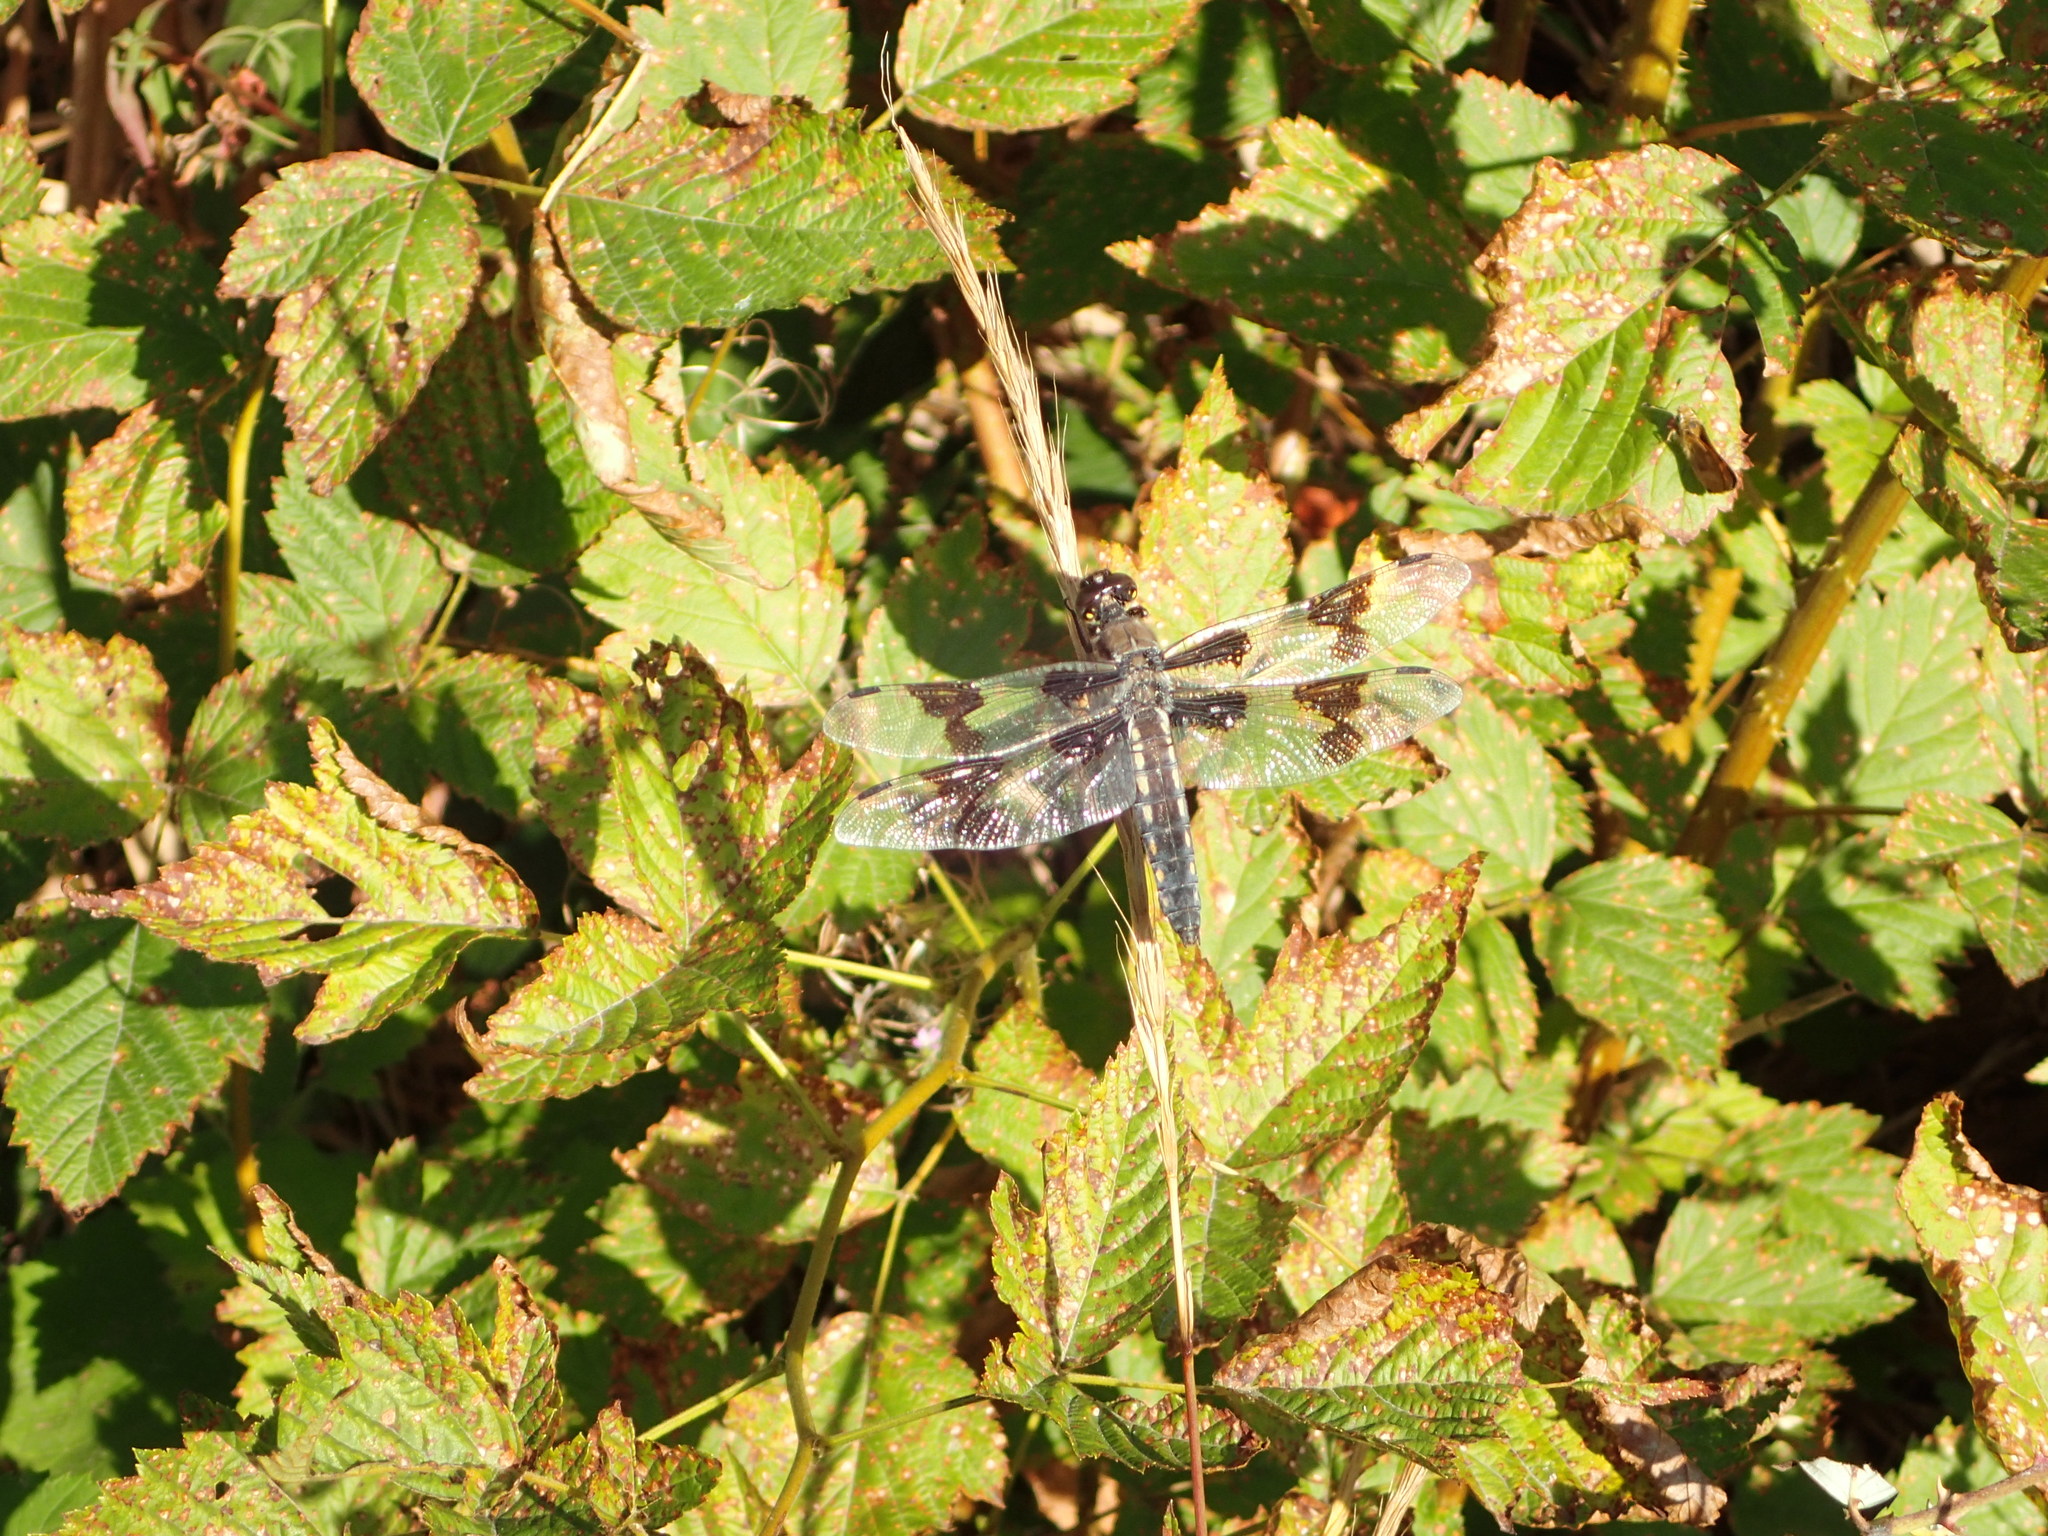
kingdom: Animalia
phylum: Arthropoda
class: Insecta
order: Odonata
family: Libellulidae
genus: Libellula
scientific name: Libellula forensis
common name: Eight-spotted skimmer
